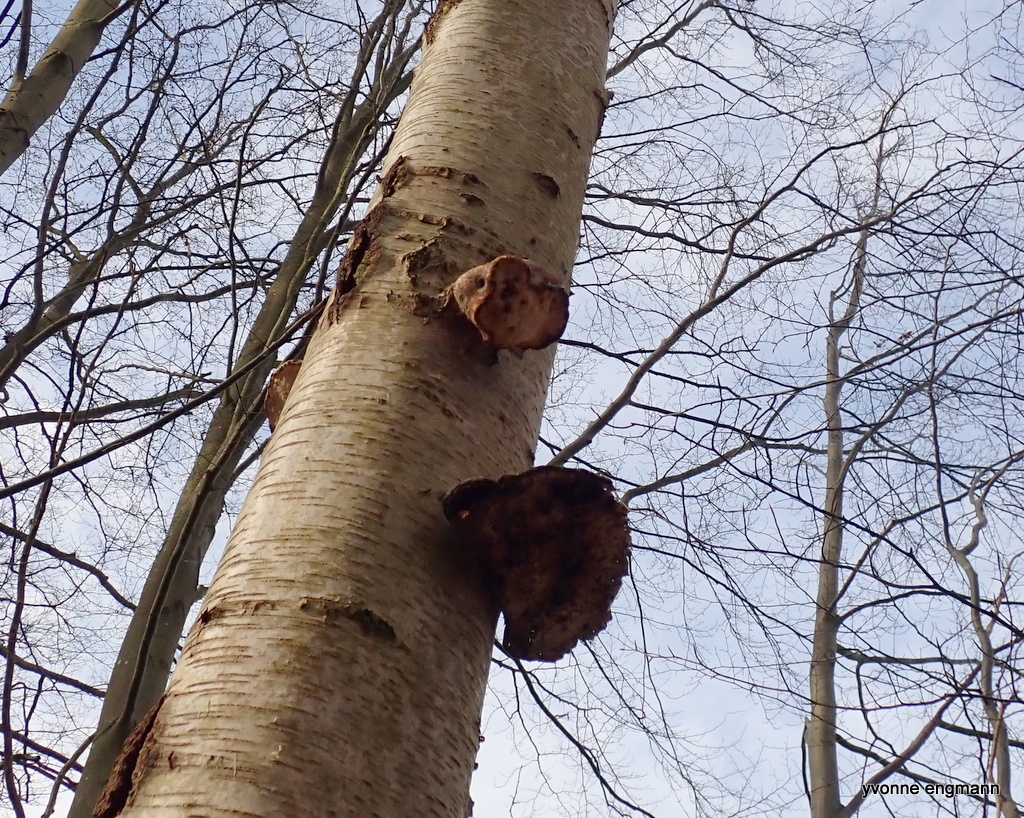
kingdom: Fungi
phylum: Basidiomycota
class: Agaricomycetes
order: Polyporales
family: Fomitopsidaceae
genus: Fomitopsis
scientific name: Fomitopsis betulina
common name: Birch polypore
